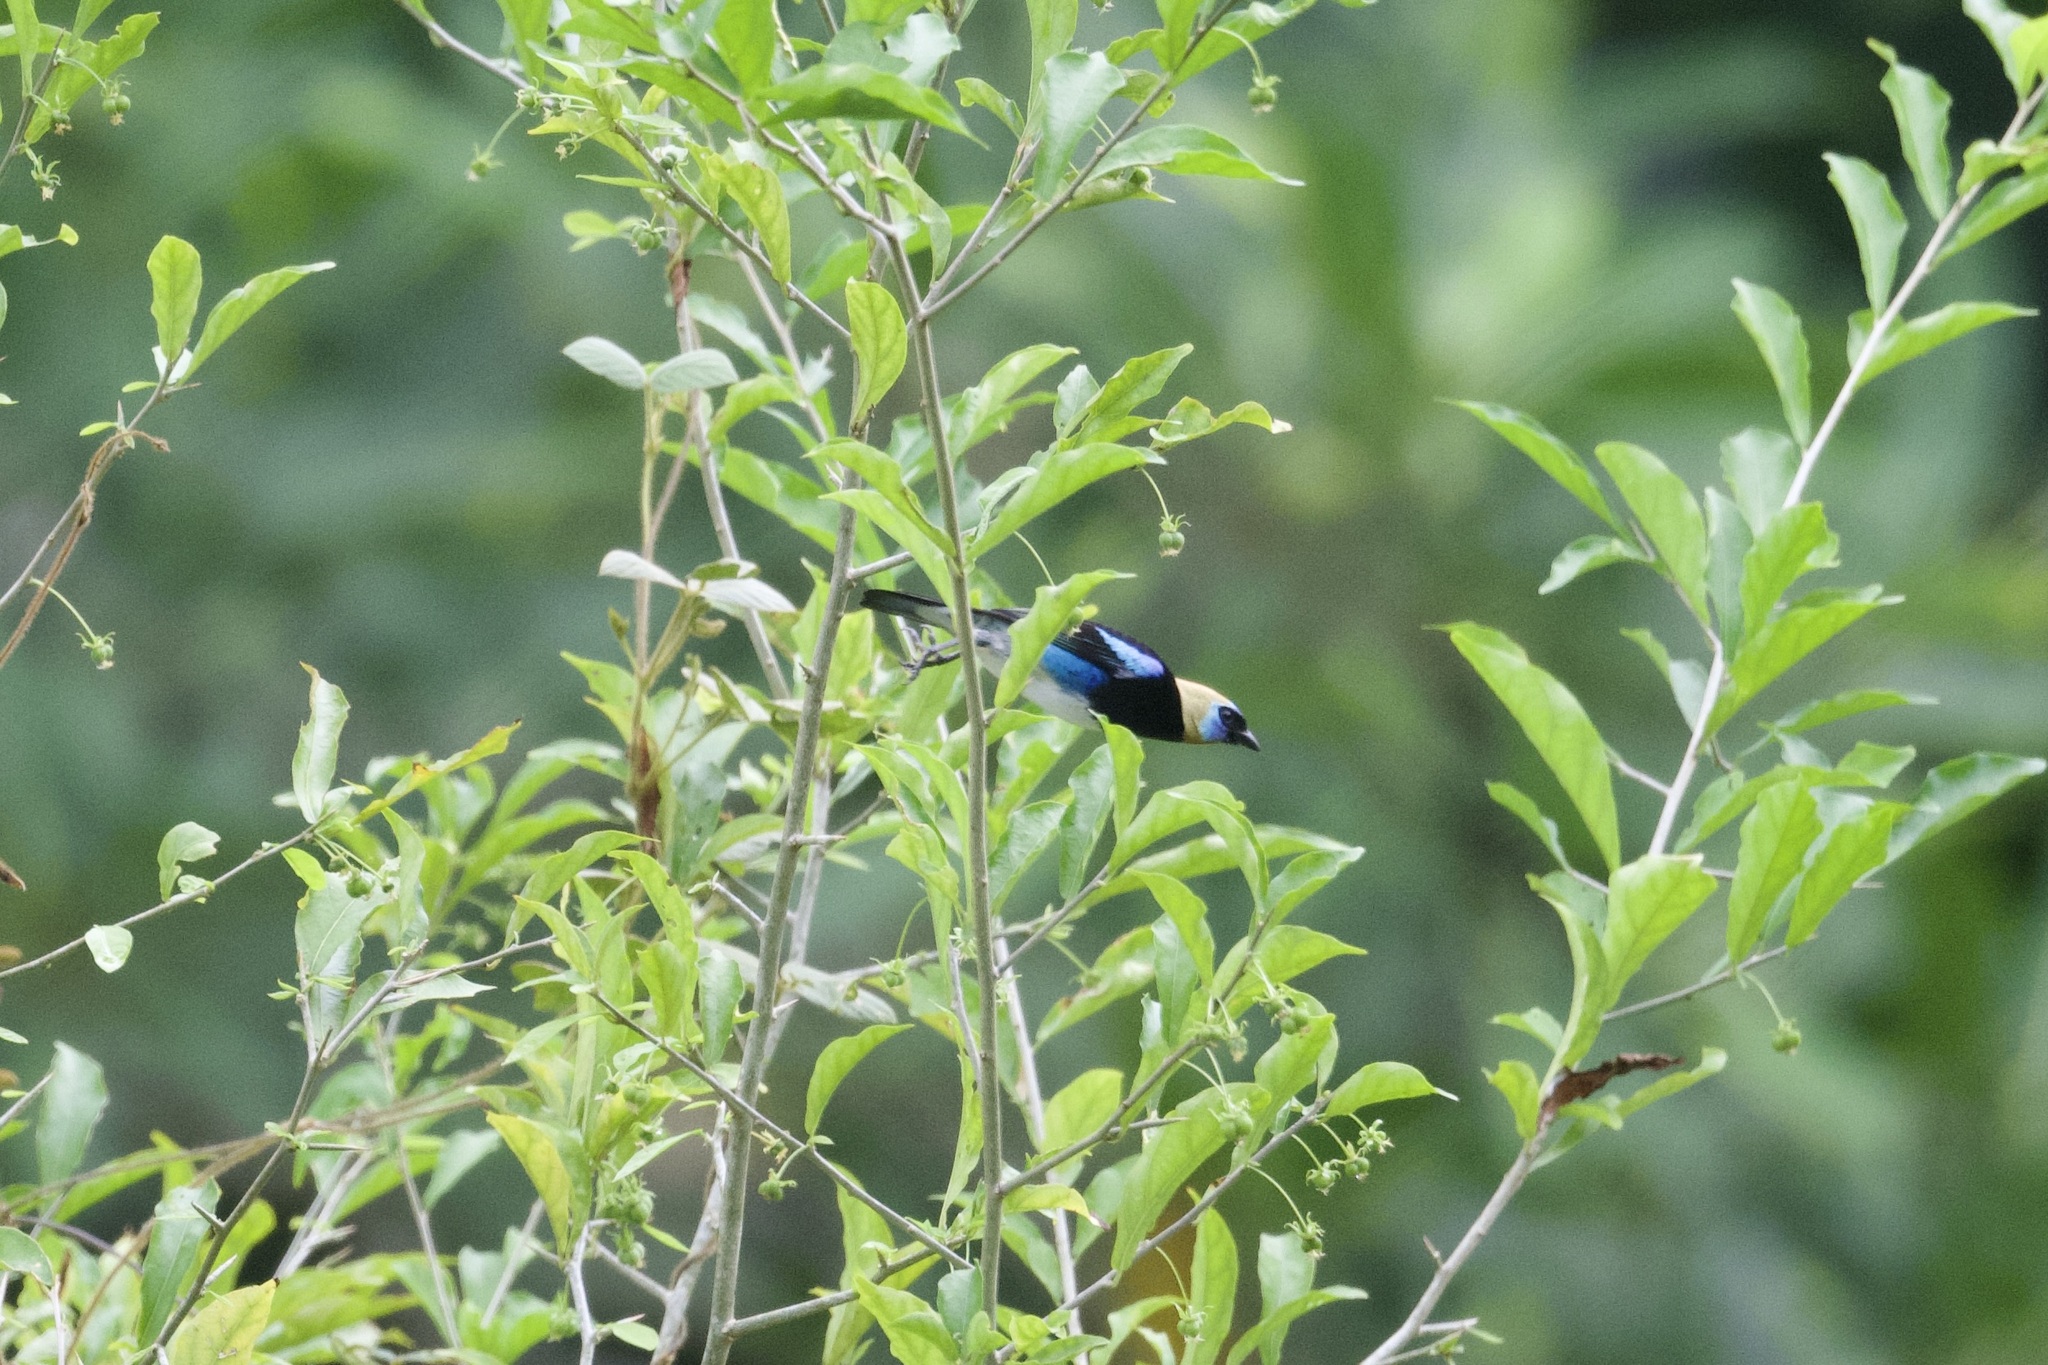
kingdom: Animalia
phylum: Chordata
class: Aves
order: Passeriformes
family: Thraupidae
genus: Stilpnia
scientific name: Stilpnia larvata
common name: Golden-hooded tanager
